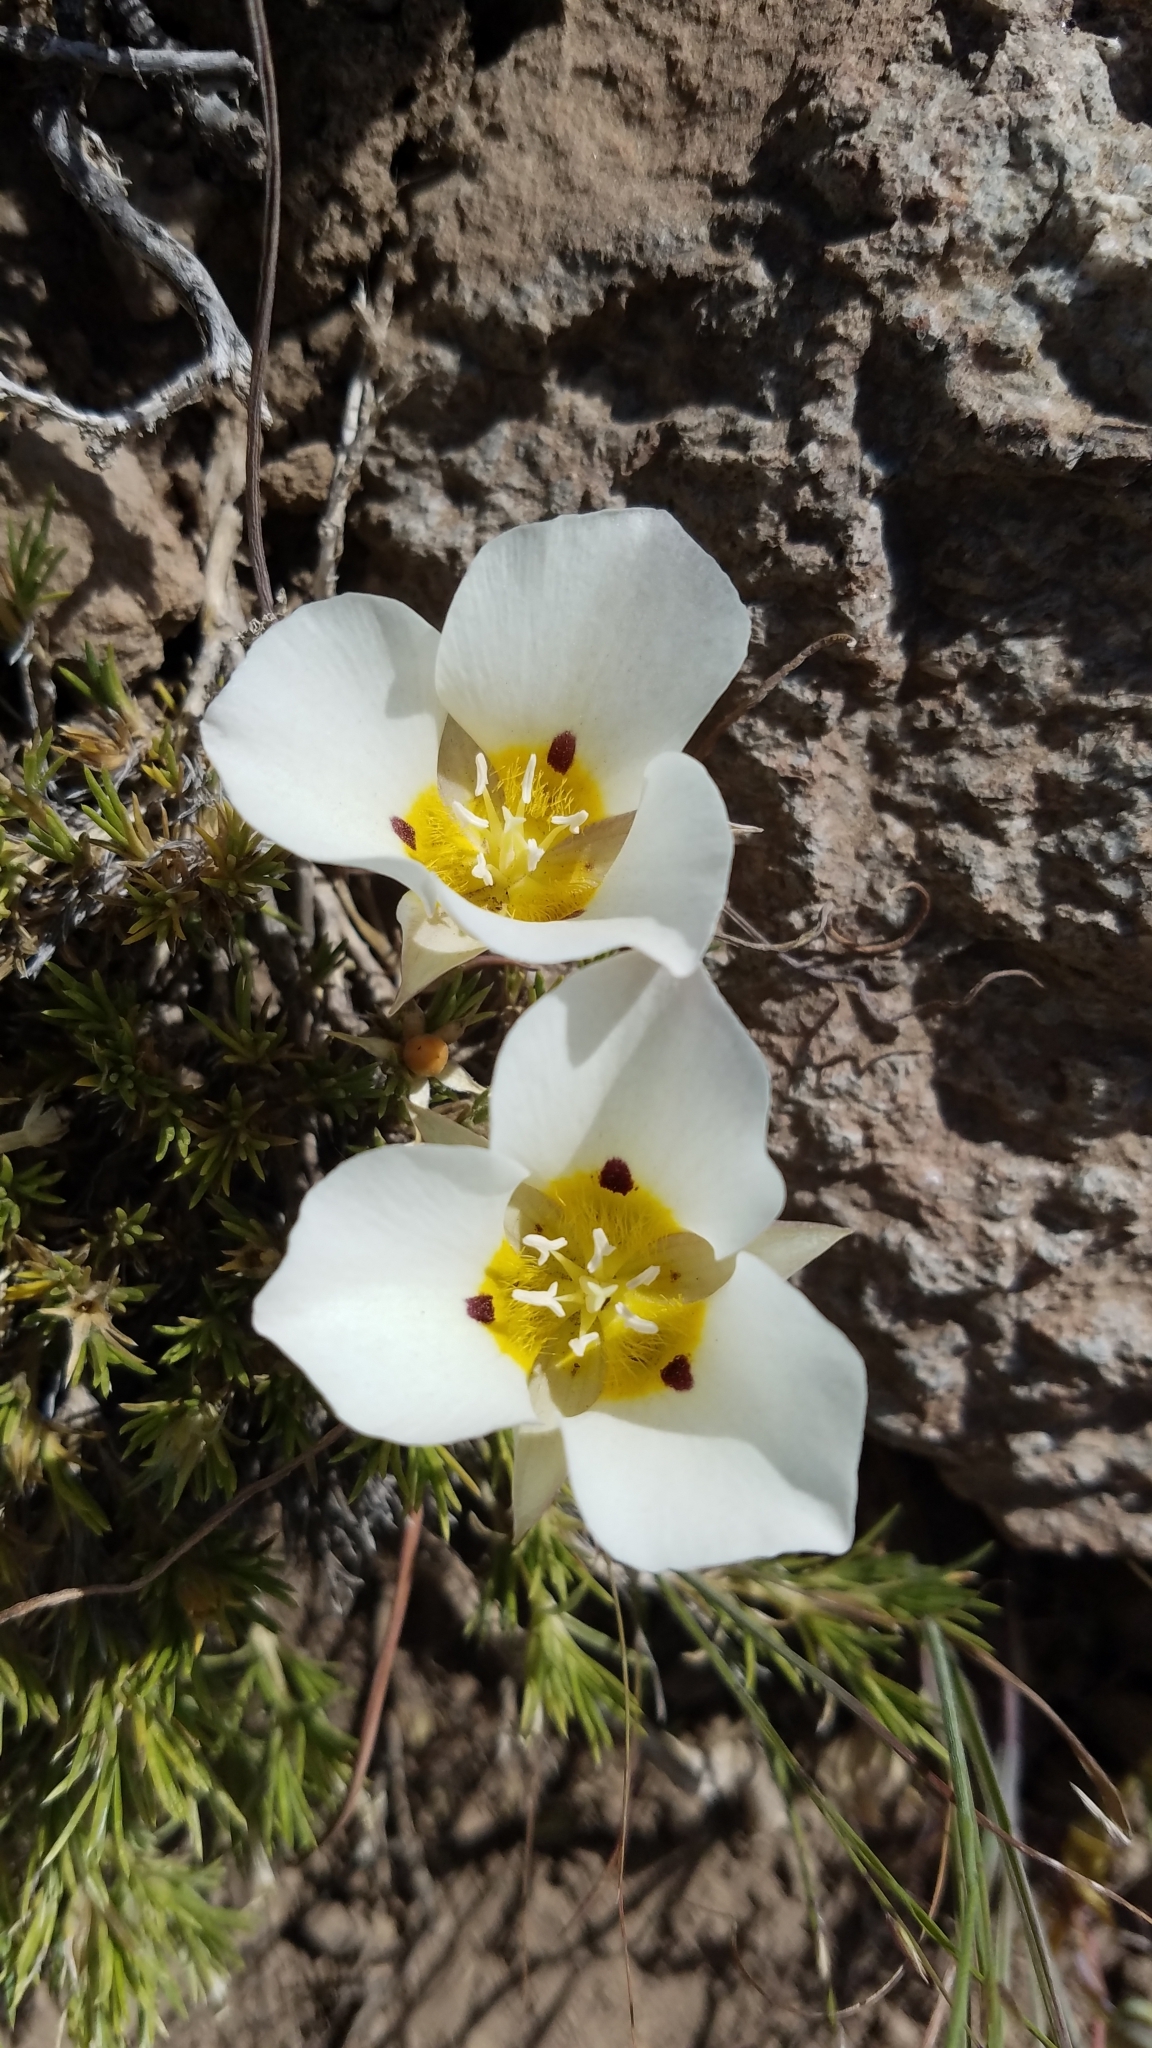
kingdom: Plantae
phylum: Tracheophyta
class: Liliopsida
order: Liliales
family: Liliaceae
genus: Calochortus
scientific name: Calochortus leichtlinii
